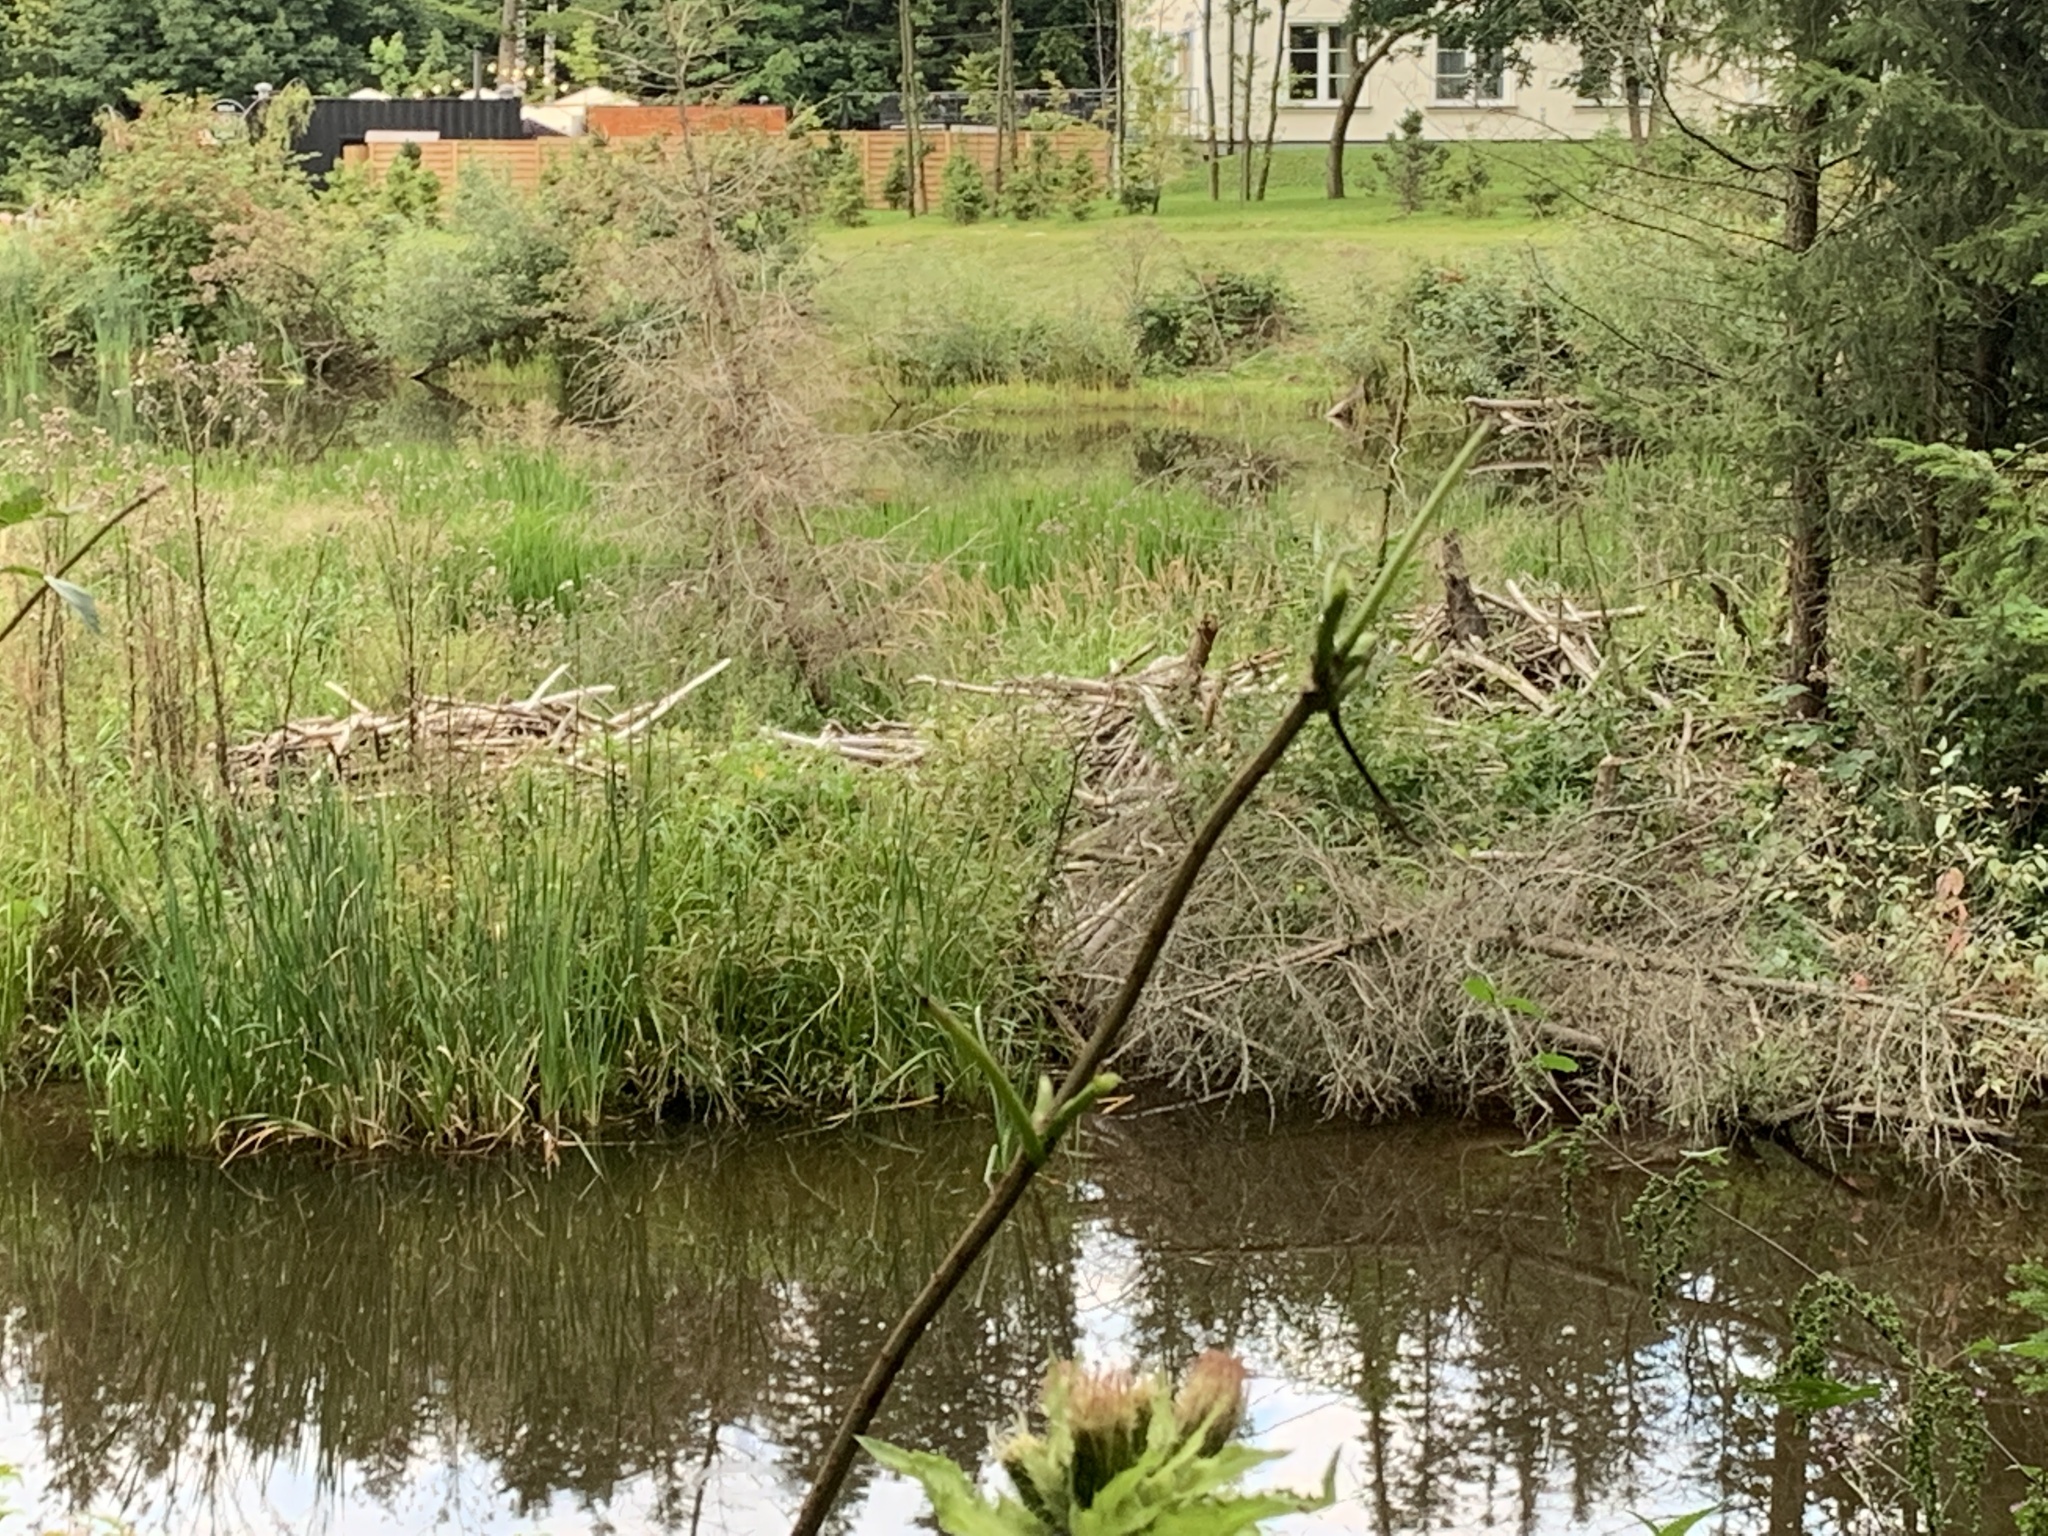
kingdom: Animalia
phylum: Chordata
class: Mammalia
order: Rodentia
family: Castoridae
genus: Castor
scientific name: Castor fiber
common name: Eurasian beaver
